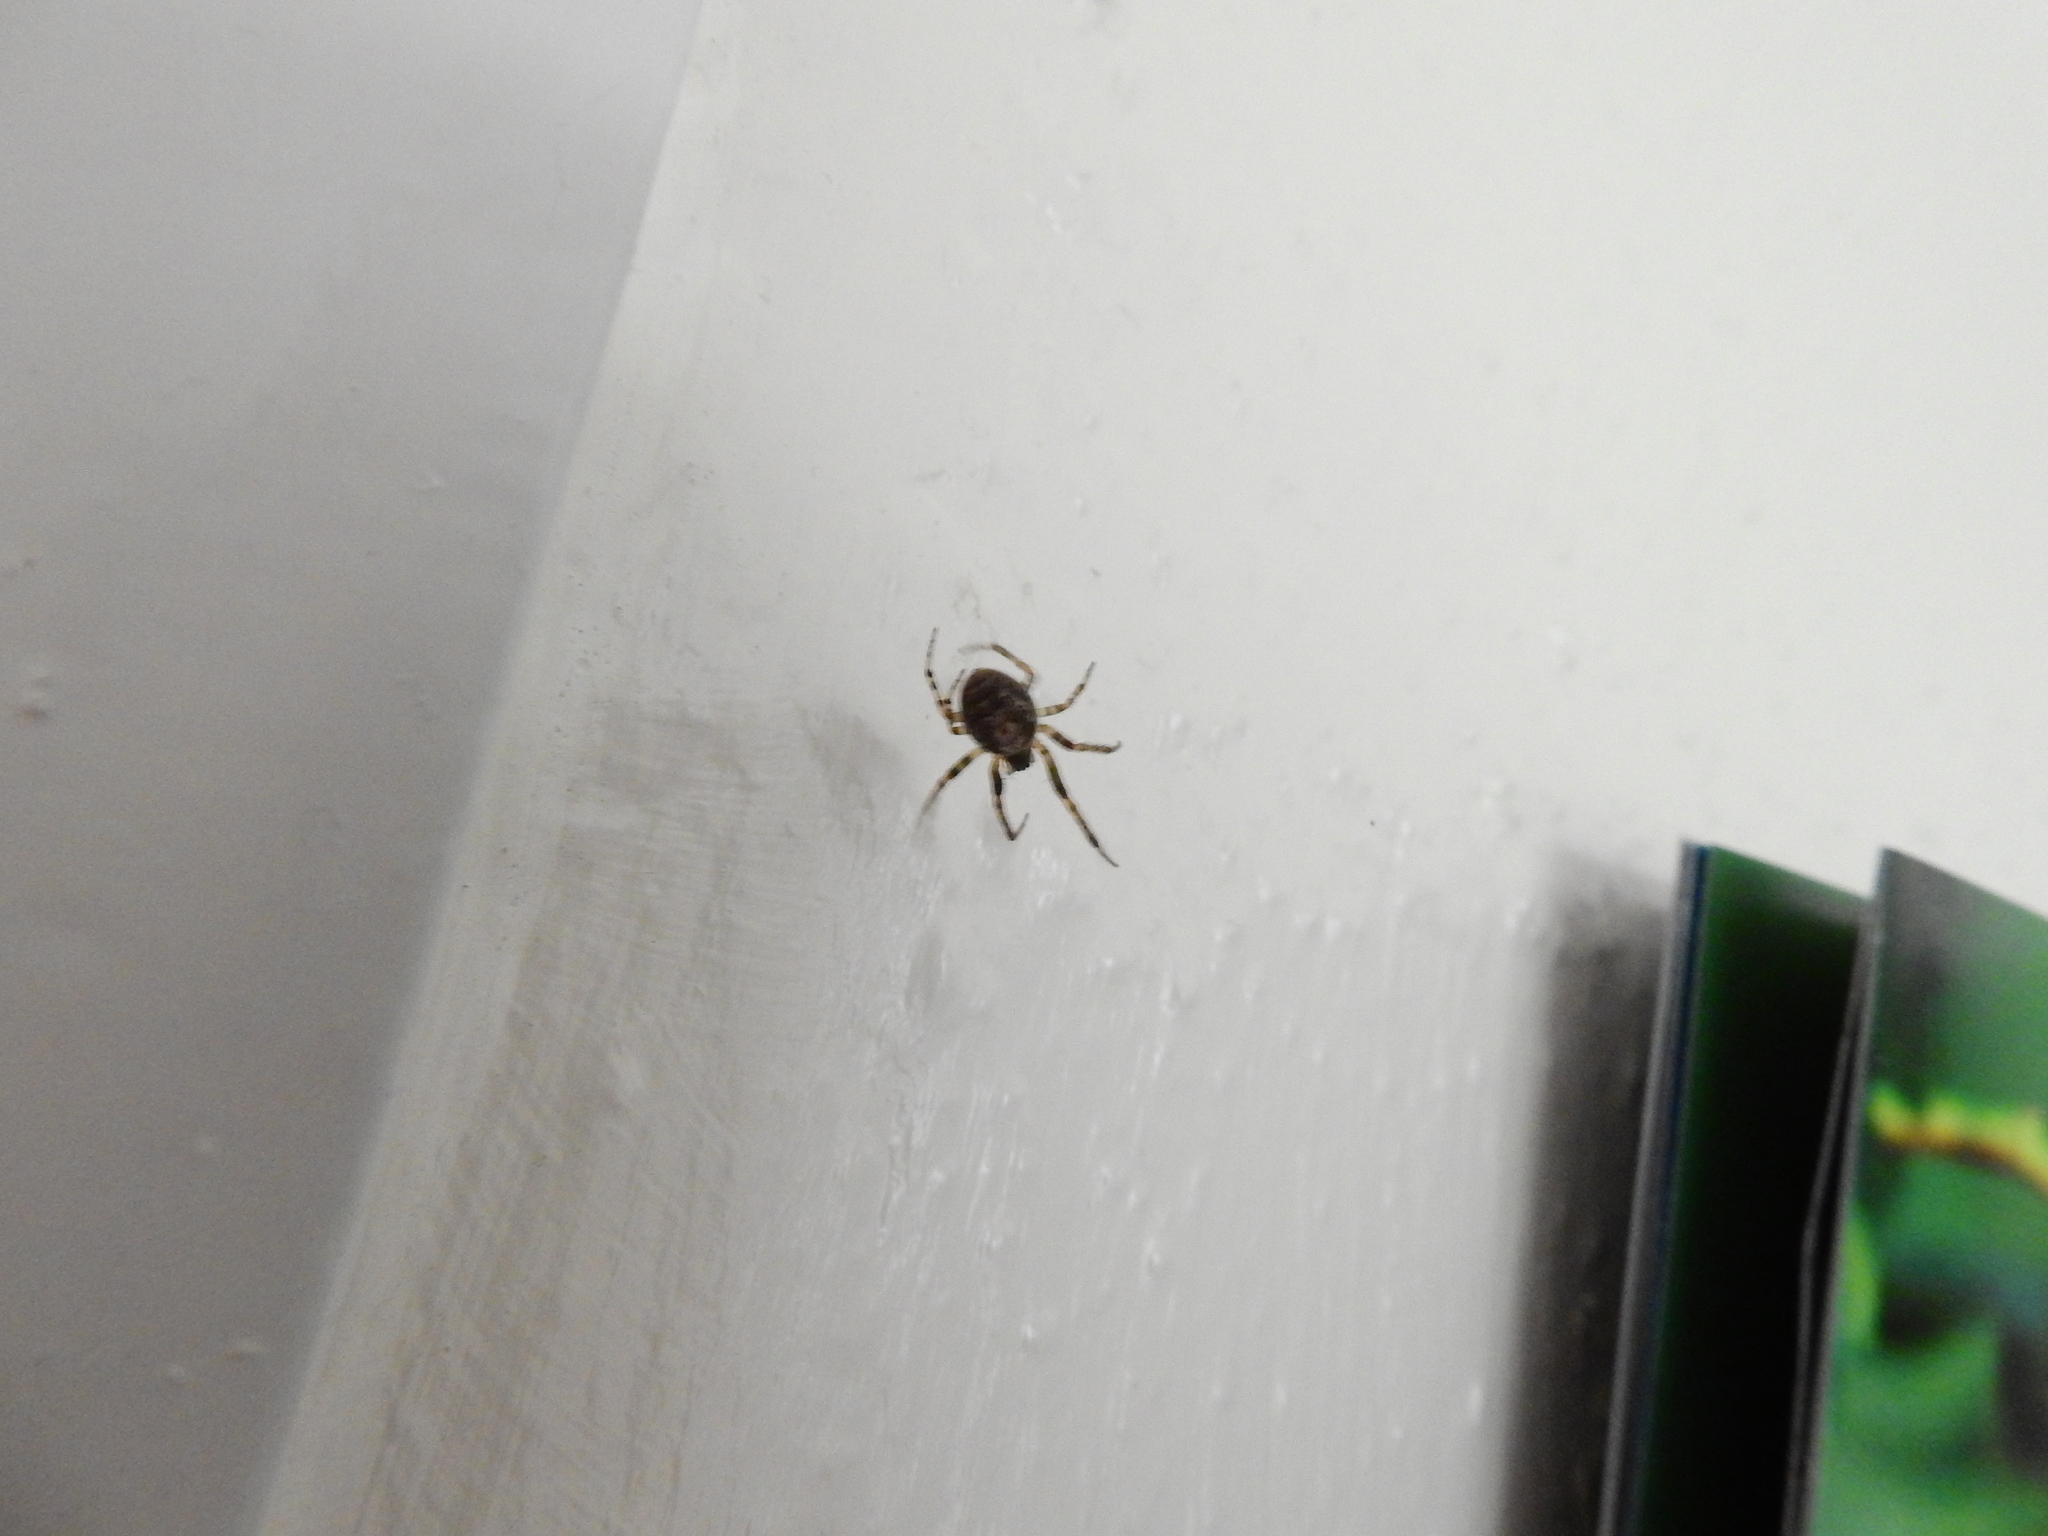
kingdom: Animalia
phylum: Arthropoda
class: Arachnida
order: Araneae
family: Araneidae
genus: Zygiella
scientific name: Zygiella x-notata
